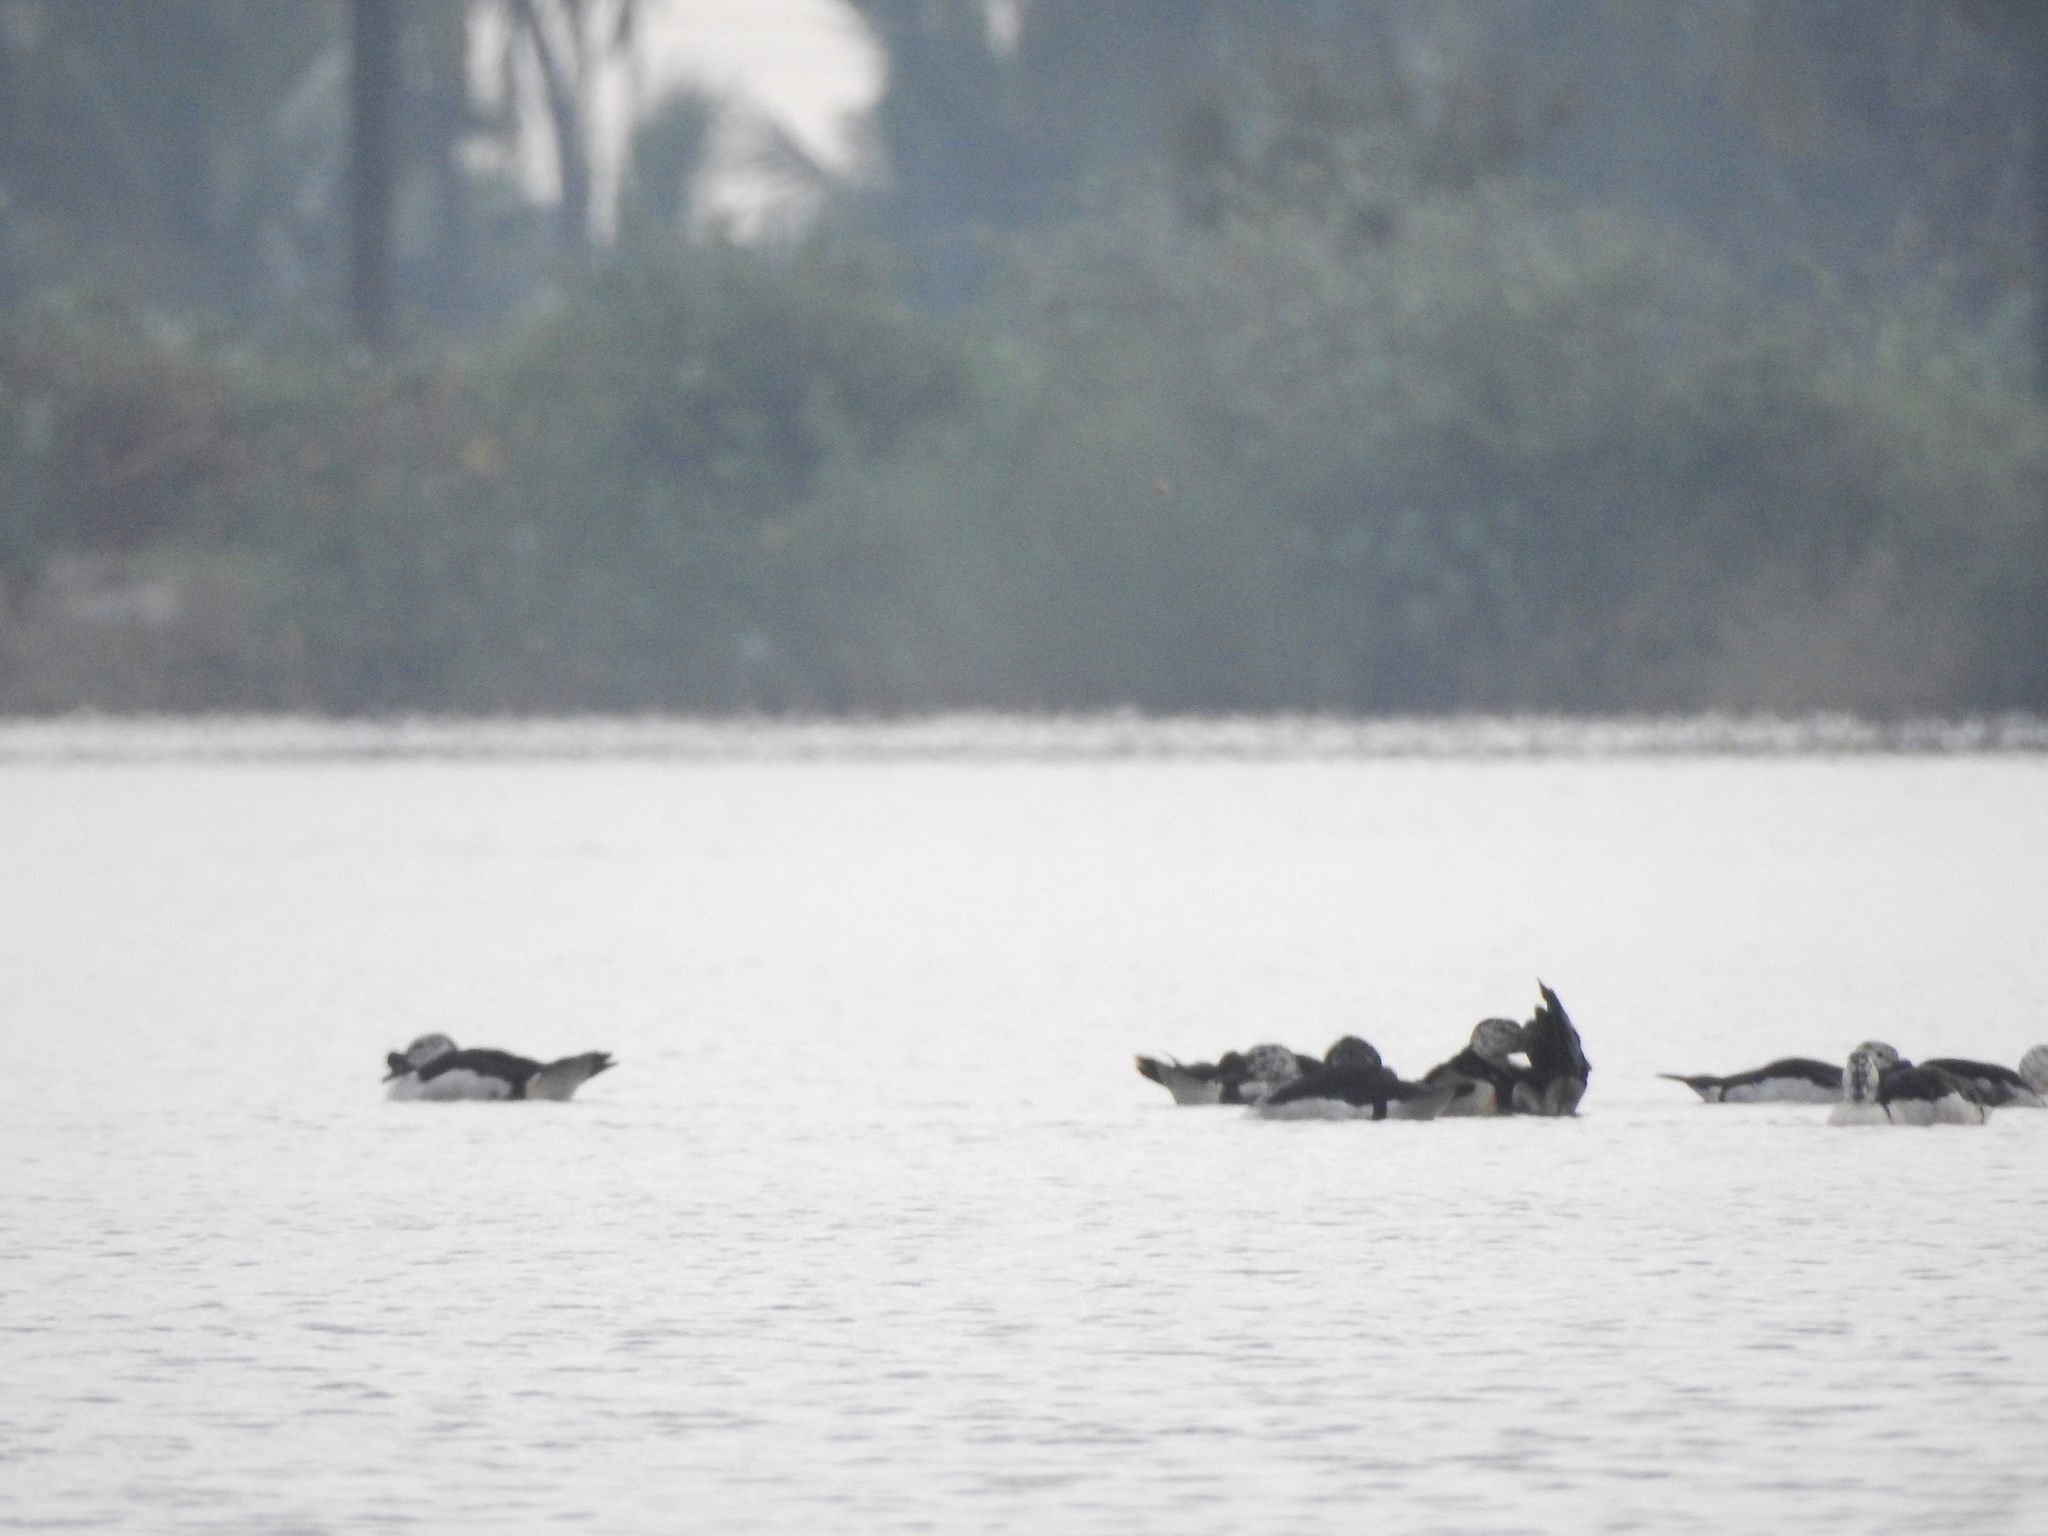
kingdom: Animalia
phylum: Chordata
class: Aves
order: Anseriformes
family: Anatidae
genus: Sarkidiornis
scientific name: Sarkidiornis melanotos
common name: Comb duck
